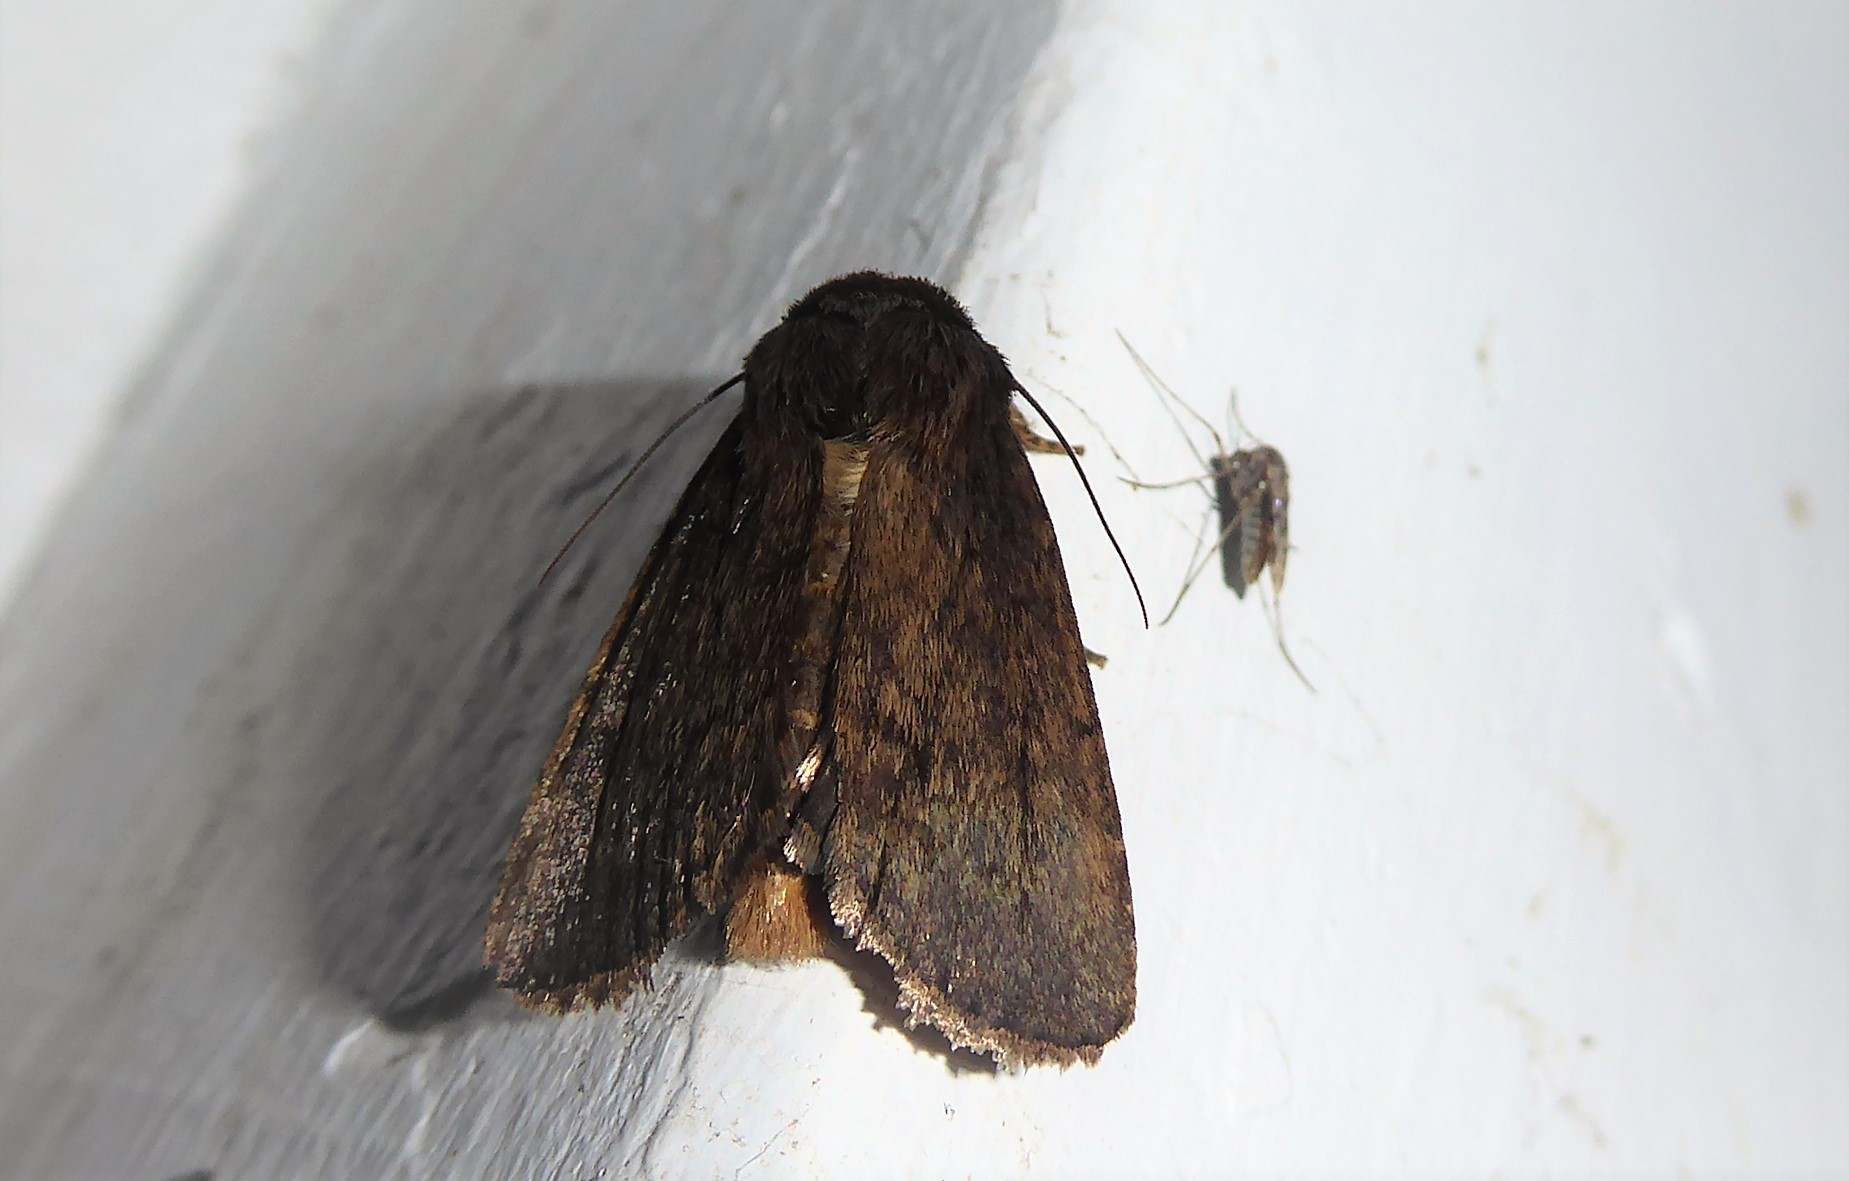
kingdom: Animalia
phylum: Arthropoda
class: Insecta
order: Lepidoptera
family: Noctuidae
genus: Bityla
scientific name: Bityla defigurata
